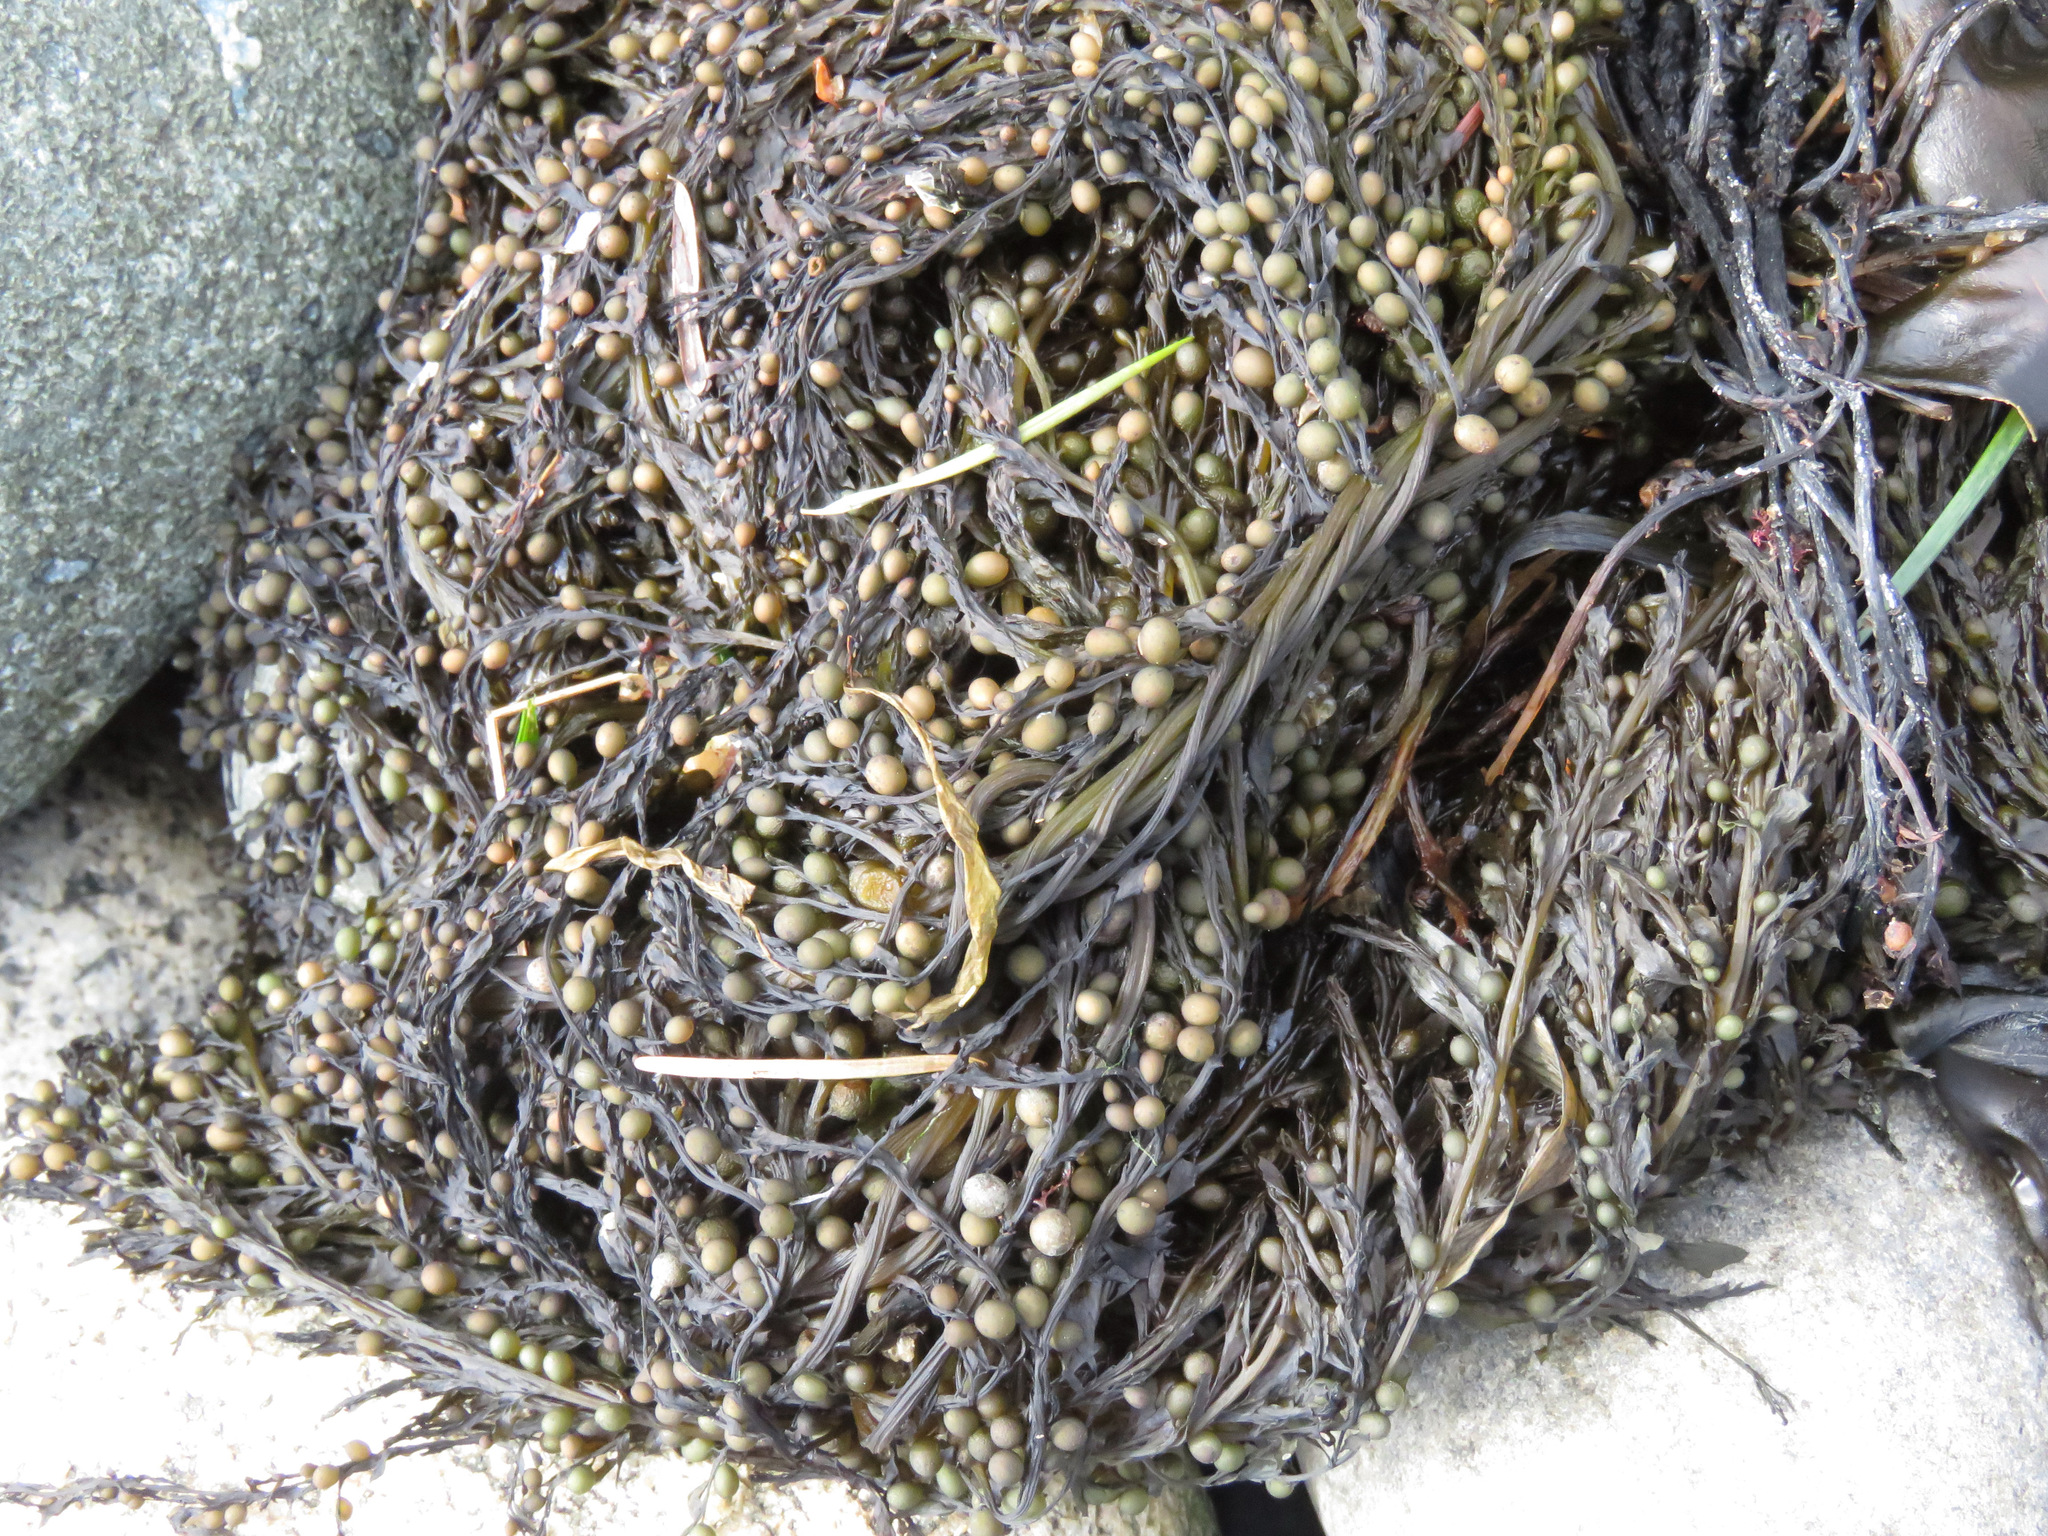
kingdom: Chromista
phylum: Ochrophyta
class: Phaeophyceae
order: Fucales
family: Sargassaceae
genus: Sargassum
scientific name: Sargassum muticum
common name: Japweed
